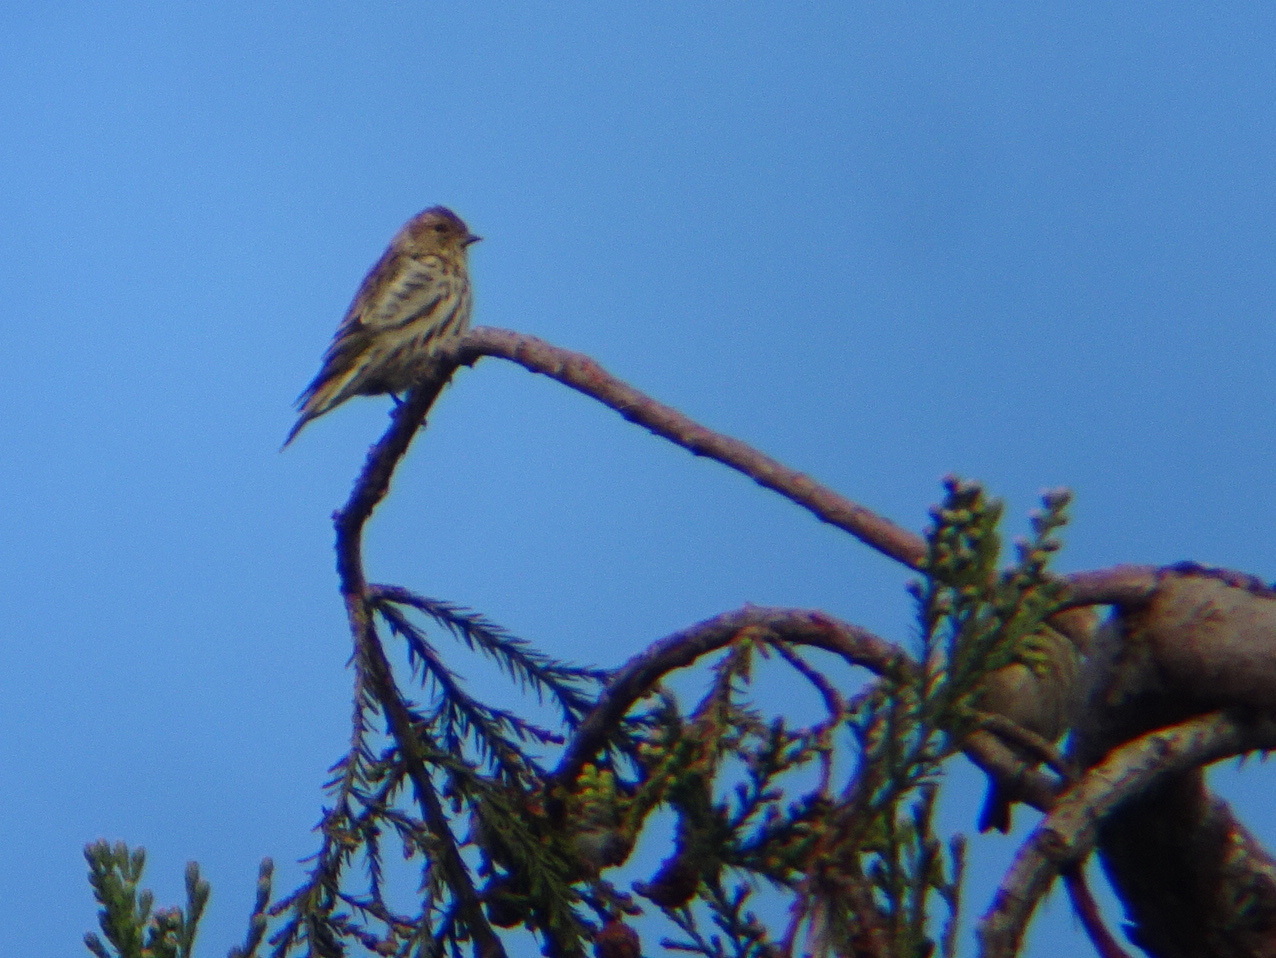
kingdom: Animalia
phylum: Chordata
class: Aves
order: Passeriformes
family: Fringillidae
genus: Spinus
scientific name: Spinus pinus
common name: Pine siskin
